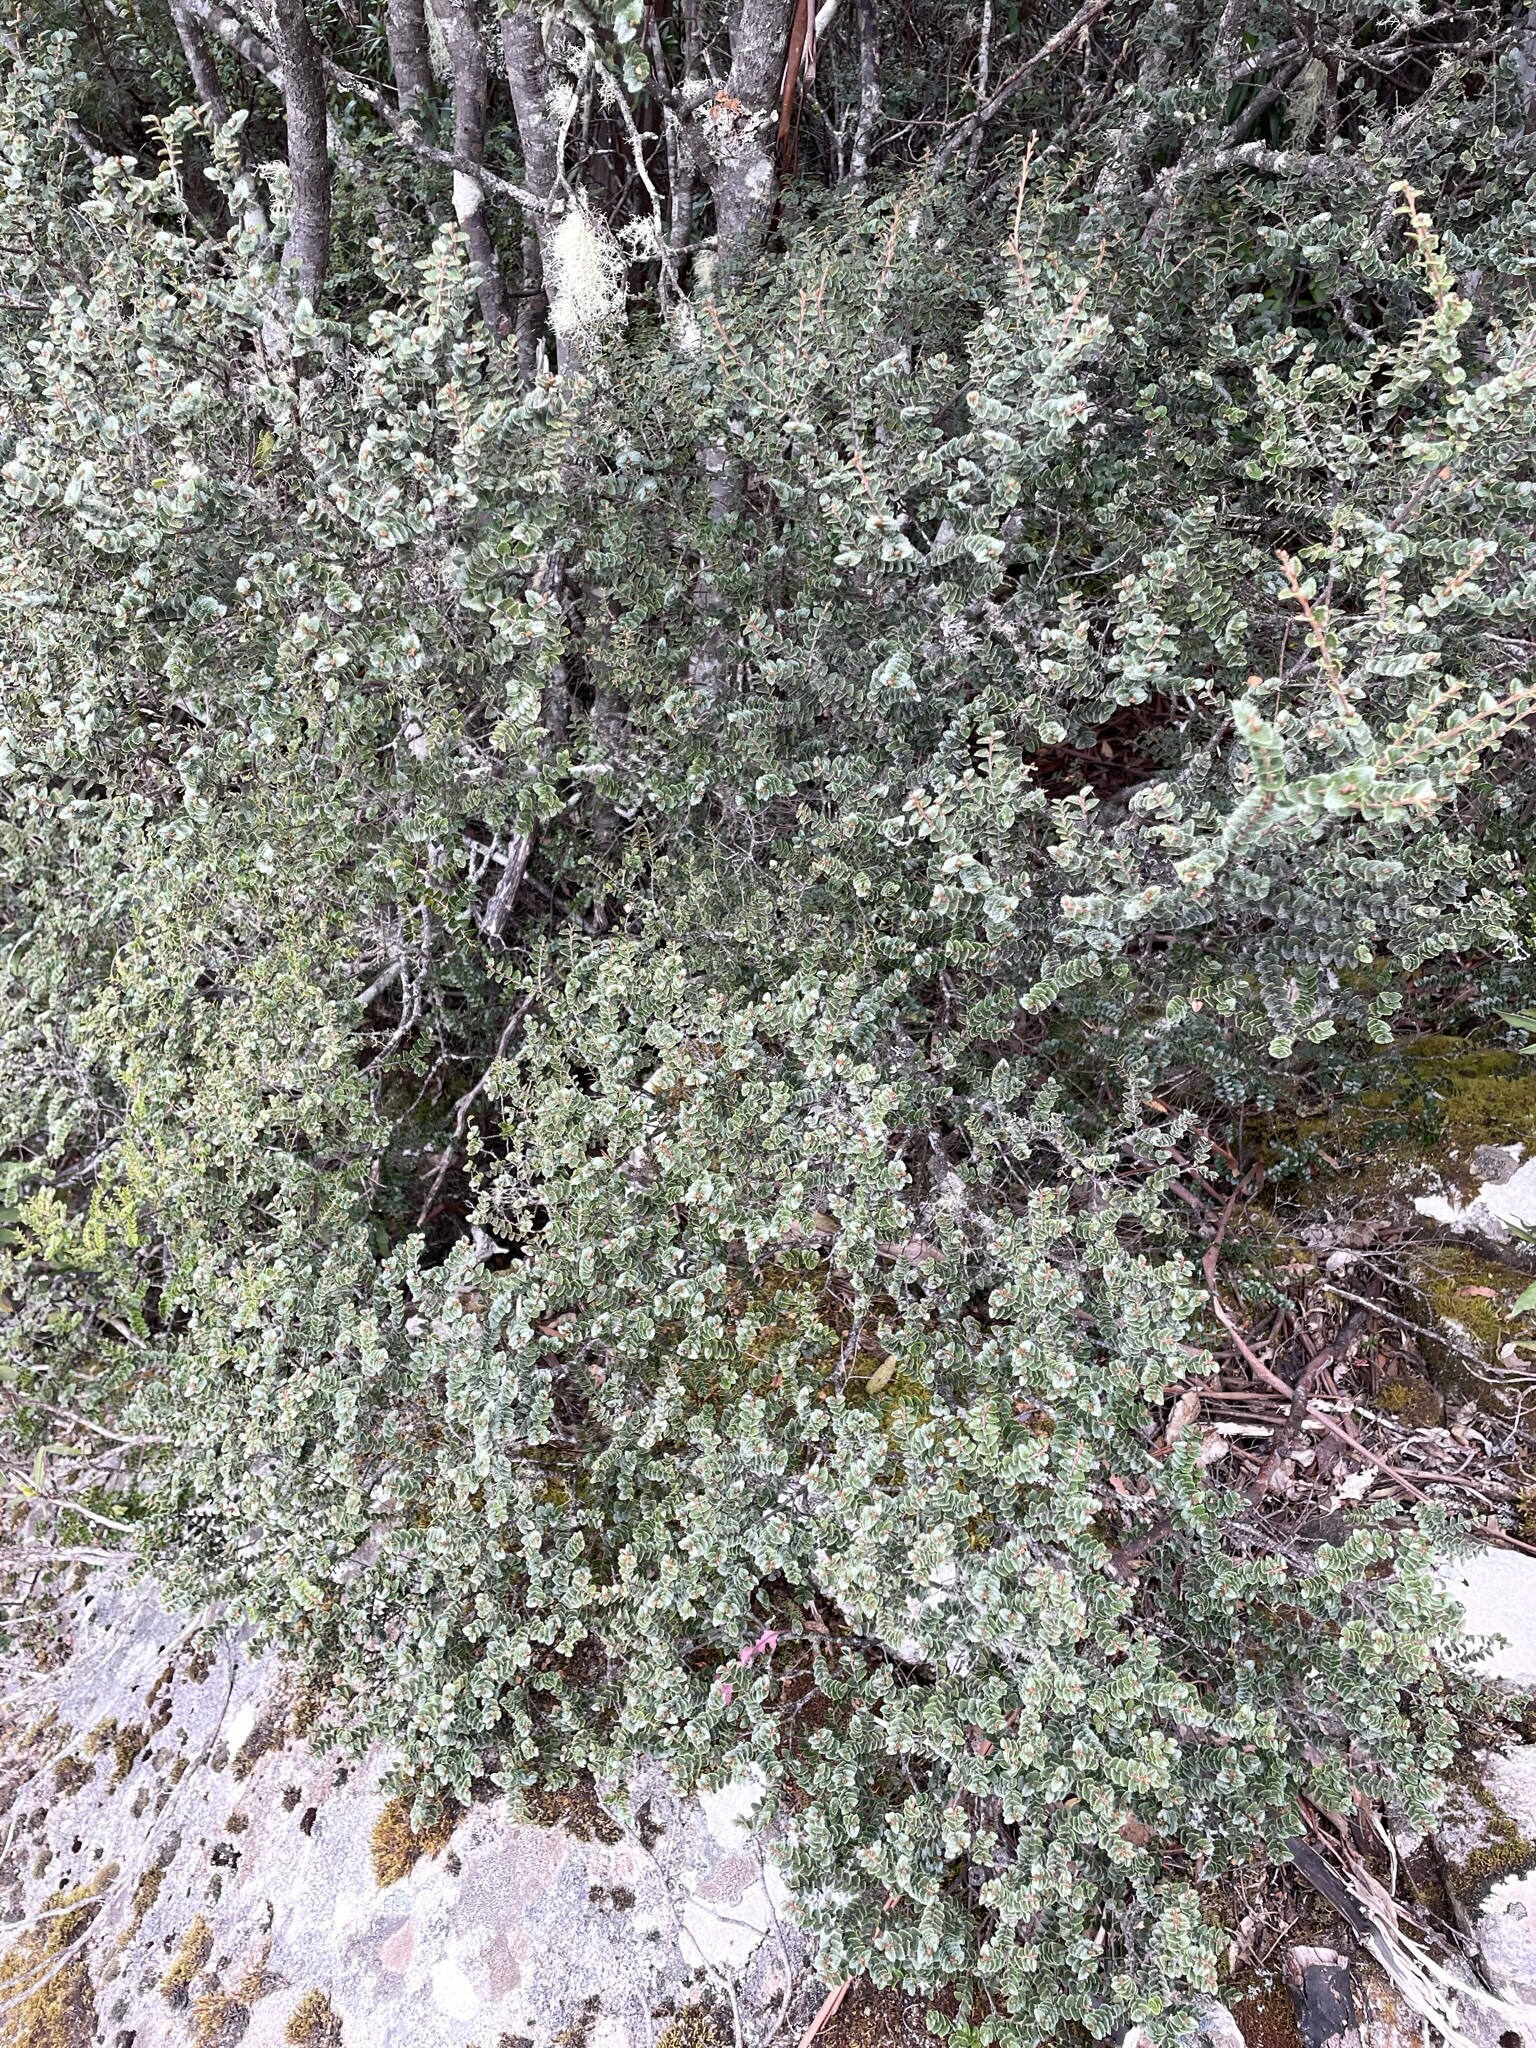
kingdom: Plantae
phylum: Tracheophyta
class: Magnoliopsida
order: Fagales
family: Nothofagaceae
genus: Nothofagus
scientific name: Nothofagus cunninghamii
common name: Myrtle beech
